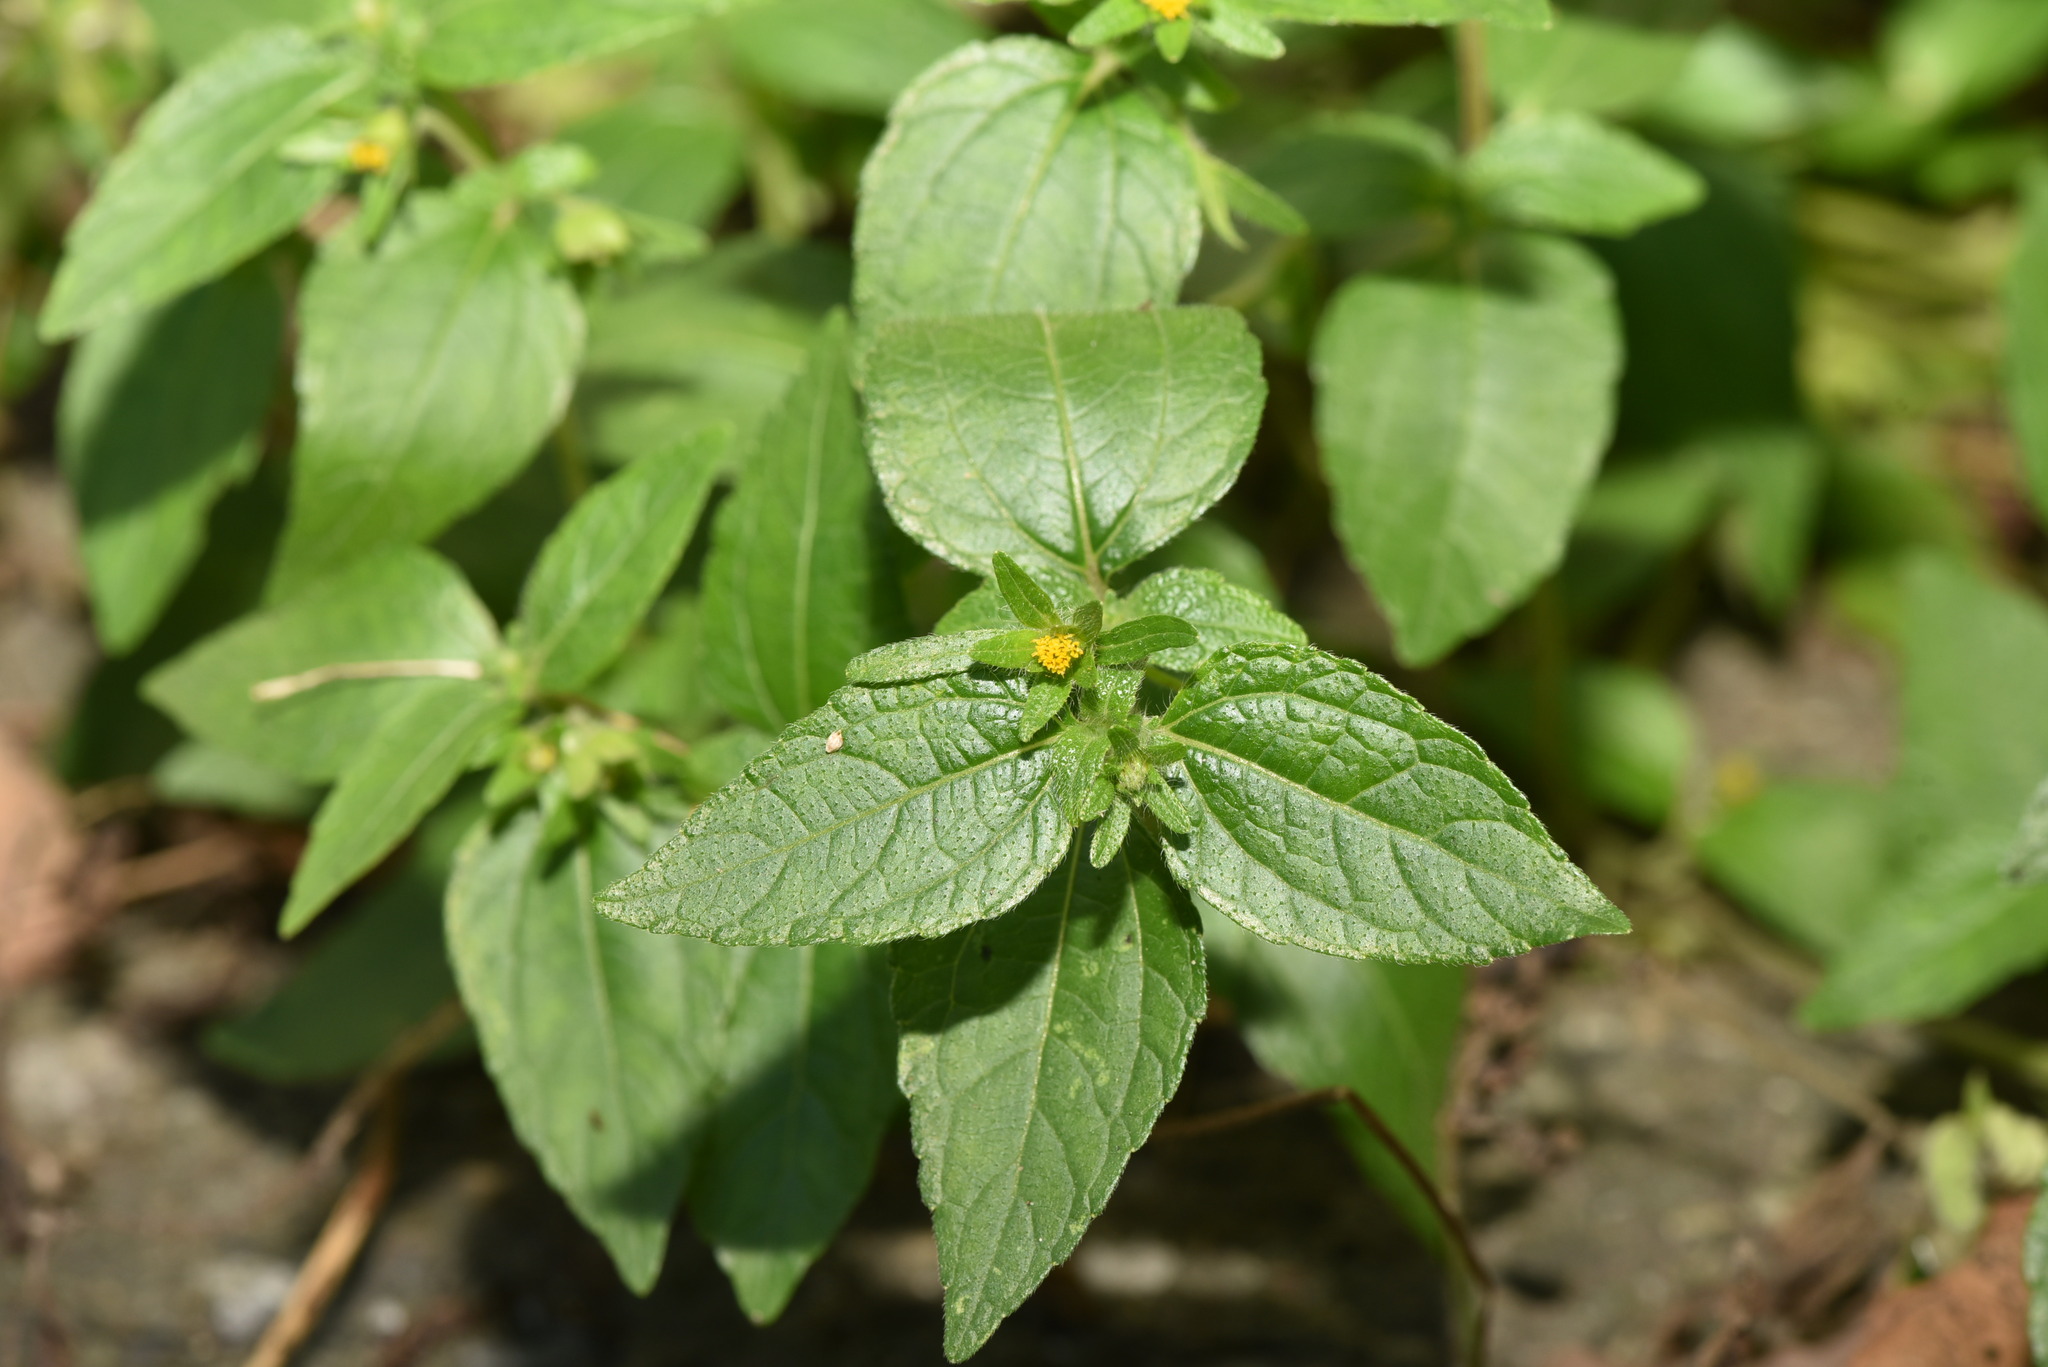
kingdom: Plantae
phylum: Tracheophyta
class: Magnoliopsida
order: Asterales
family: Asteraceae
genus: Synedrella
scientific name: Synedrella nodiflora
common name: Nodeweed
